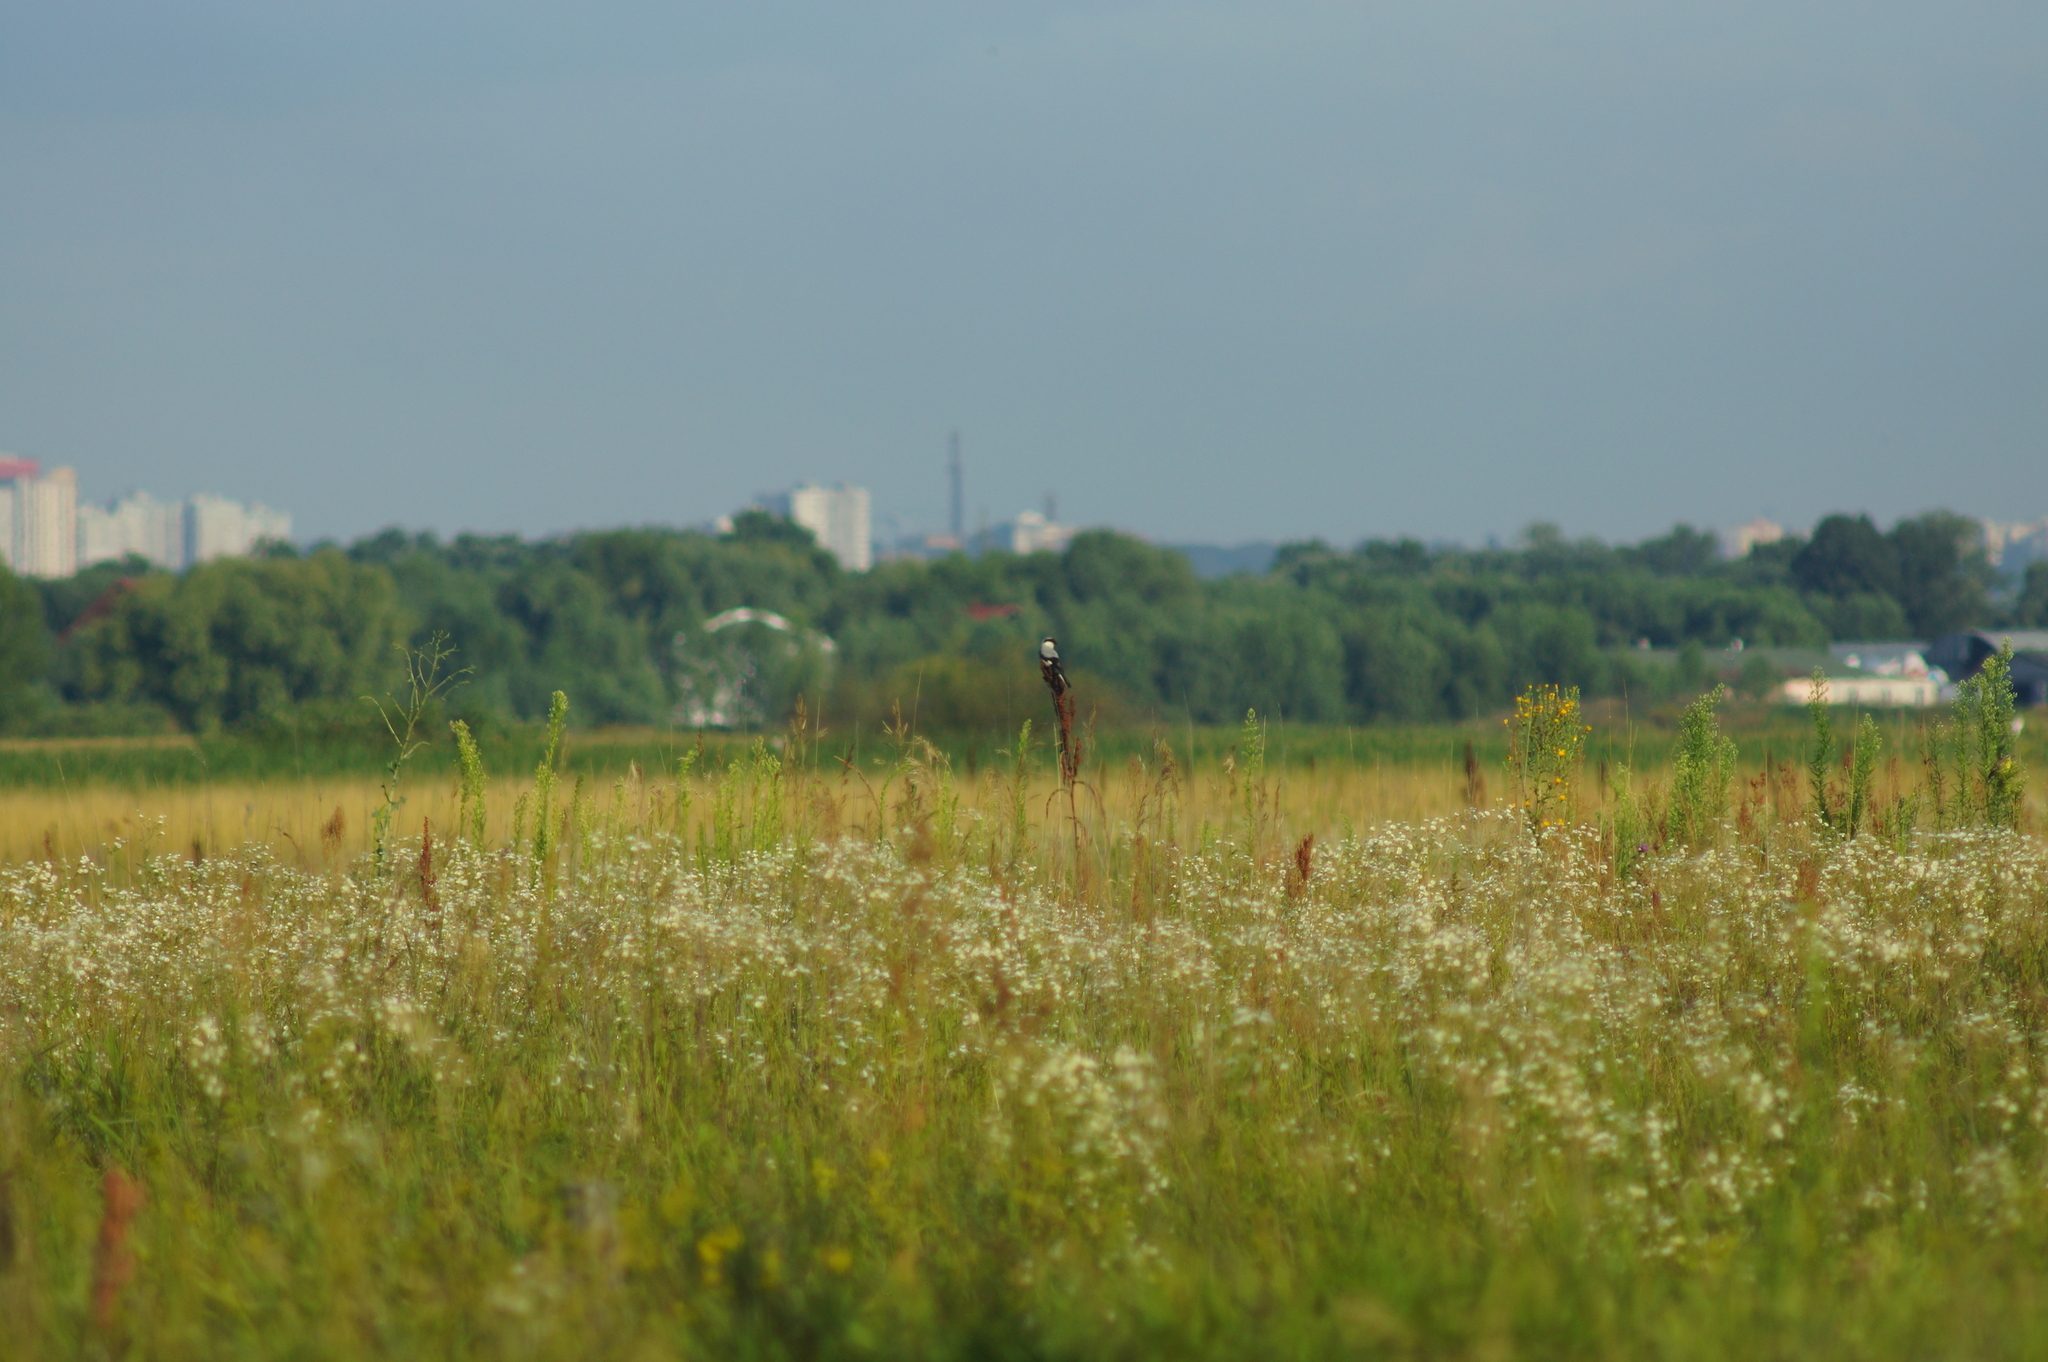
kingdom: Animalia
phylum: Chordata
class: Aves
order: Passeriformes
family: Laniidae
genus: Lanius
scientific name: Lanius minor
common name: Lesser grey shrike
